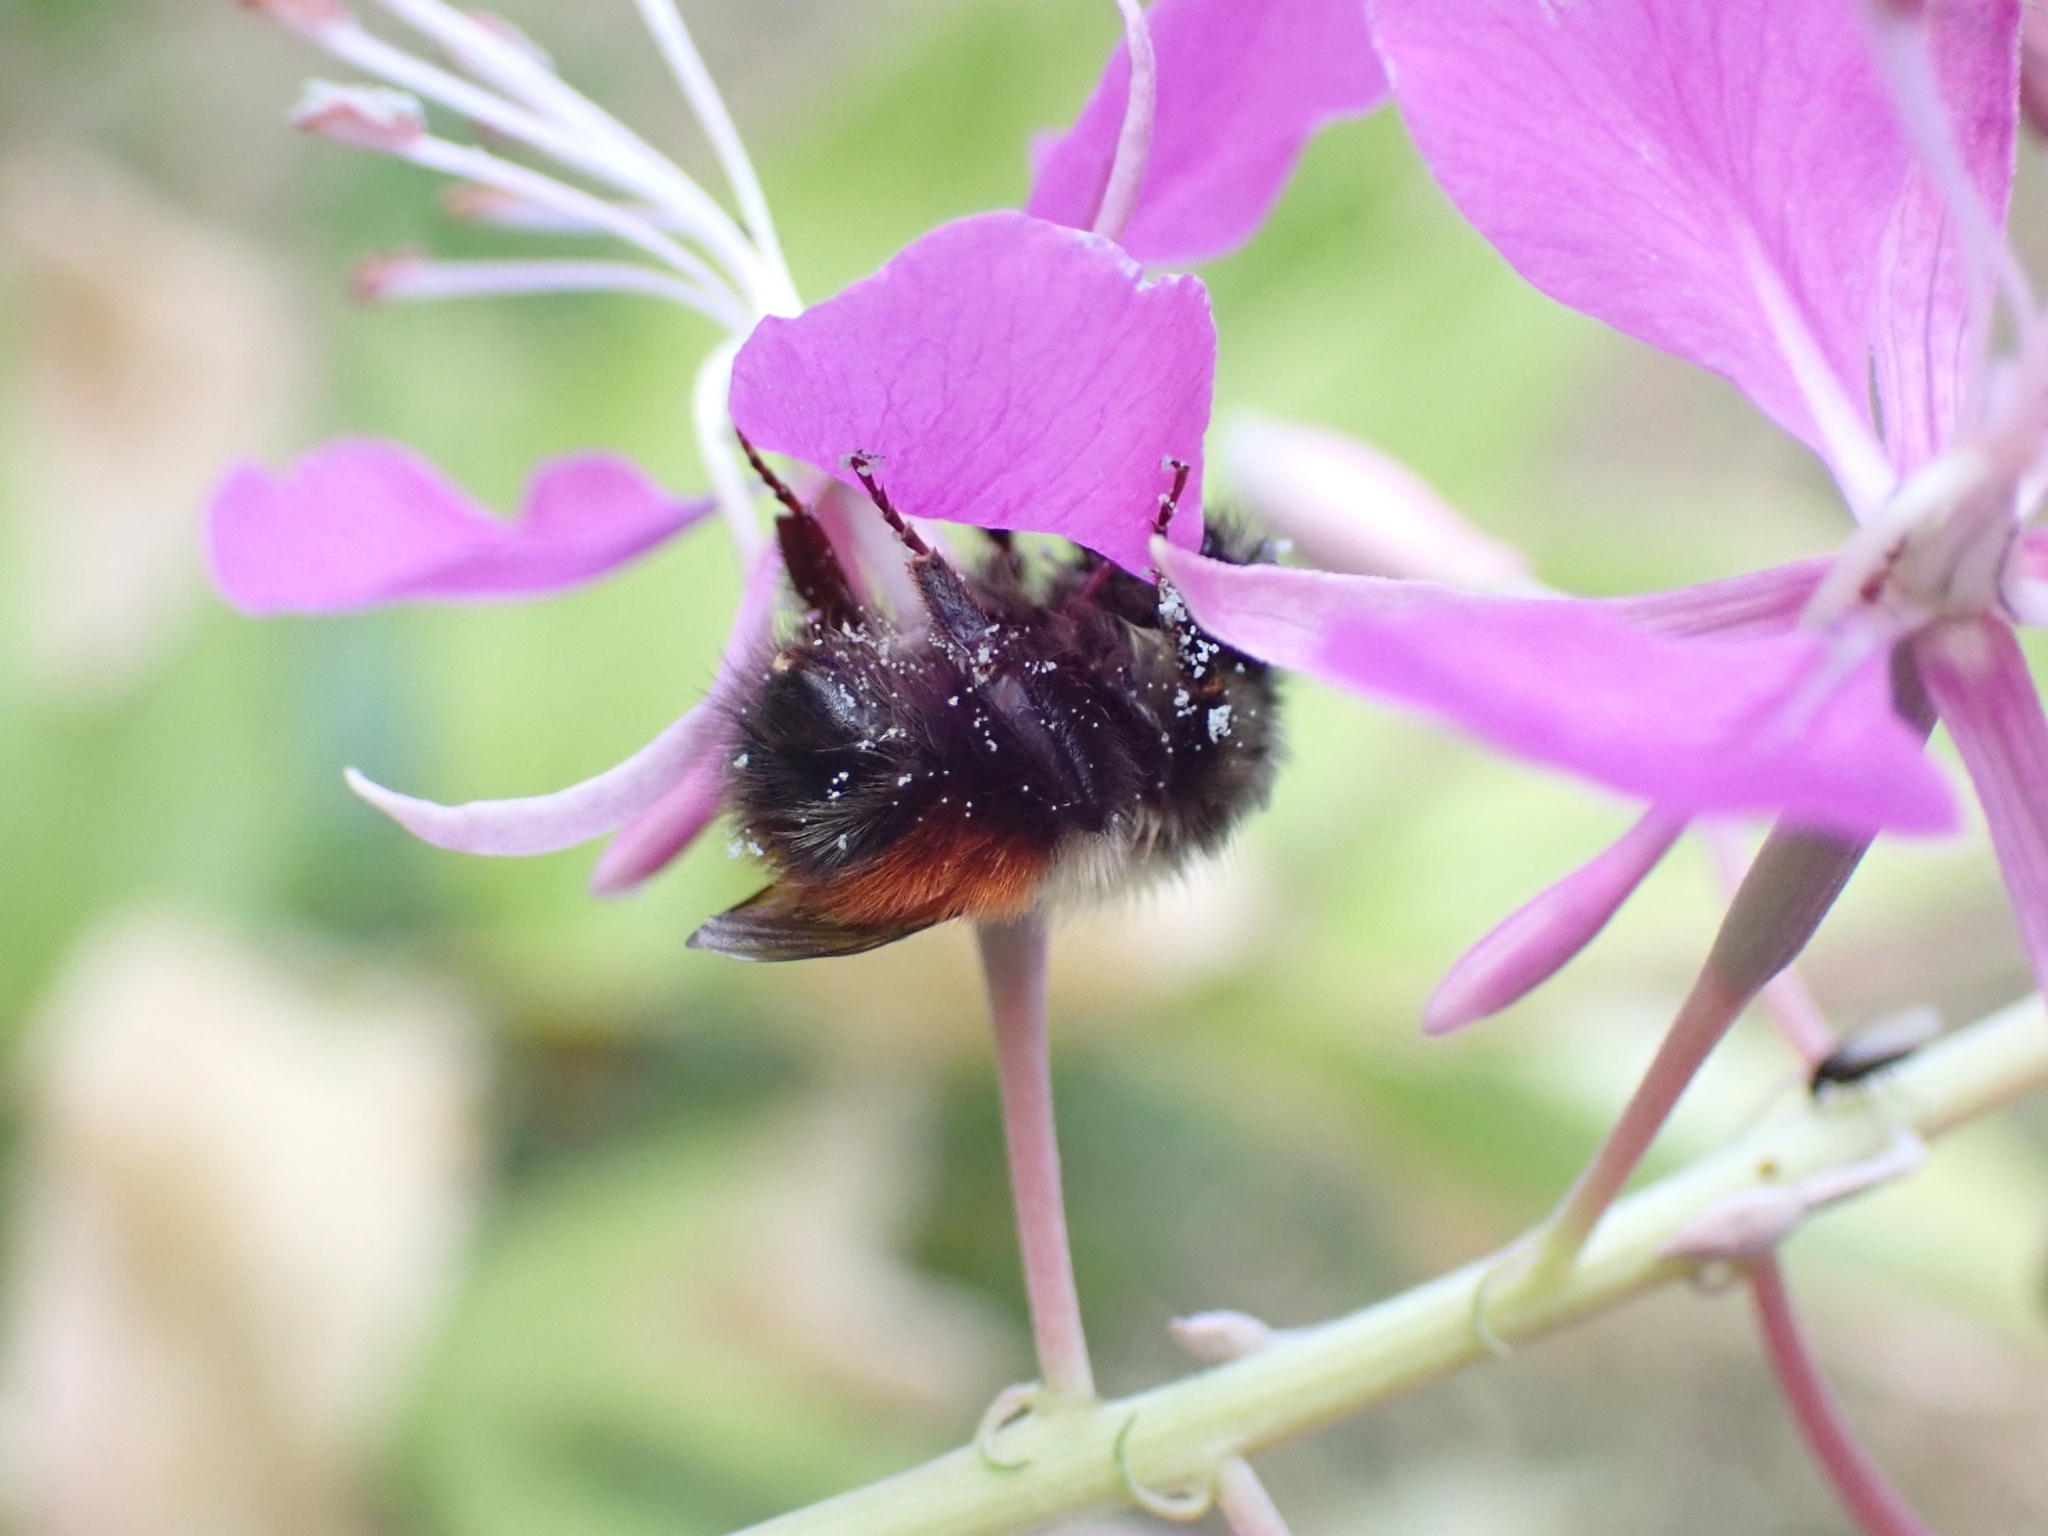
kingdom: Animalia
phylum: Arthropoda
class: Insecta
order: Hymenoptera
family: Apidae
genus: Bombus
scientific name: Bombus melanopygus
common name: Black tail bumble bee
